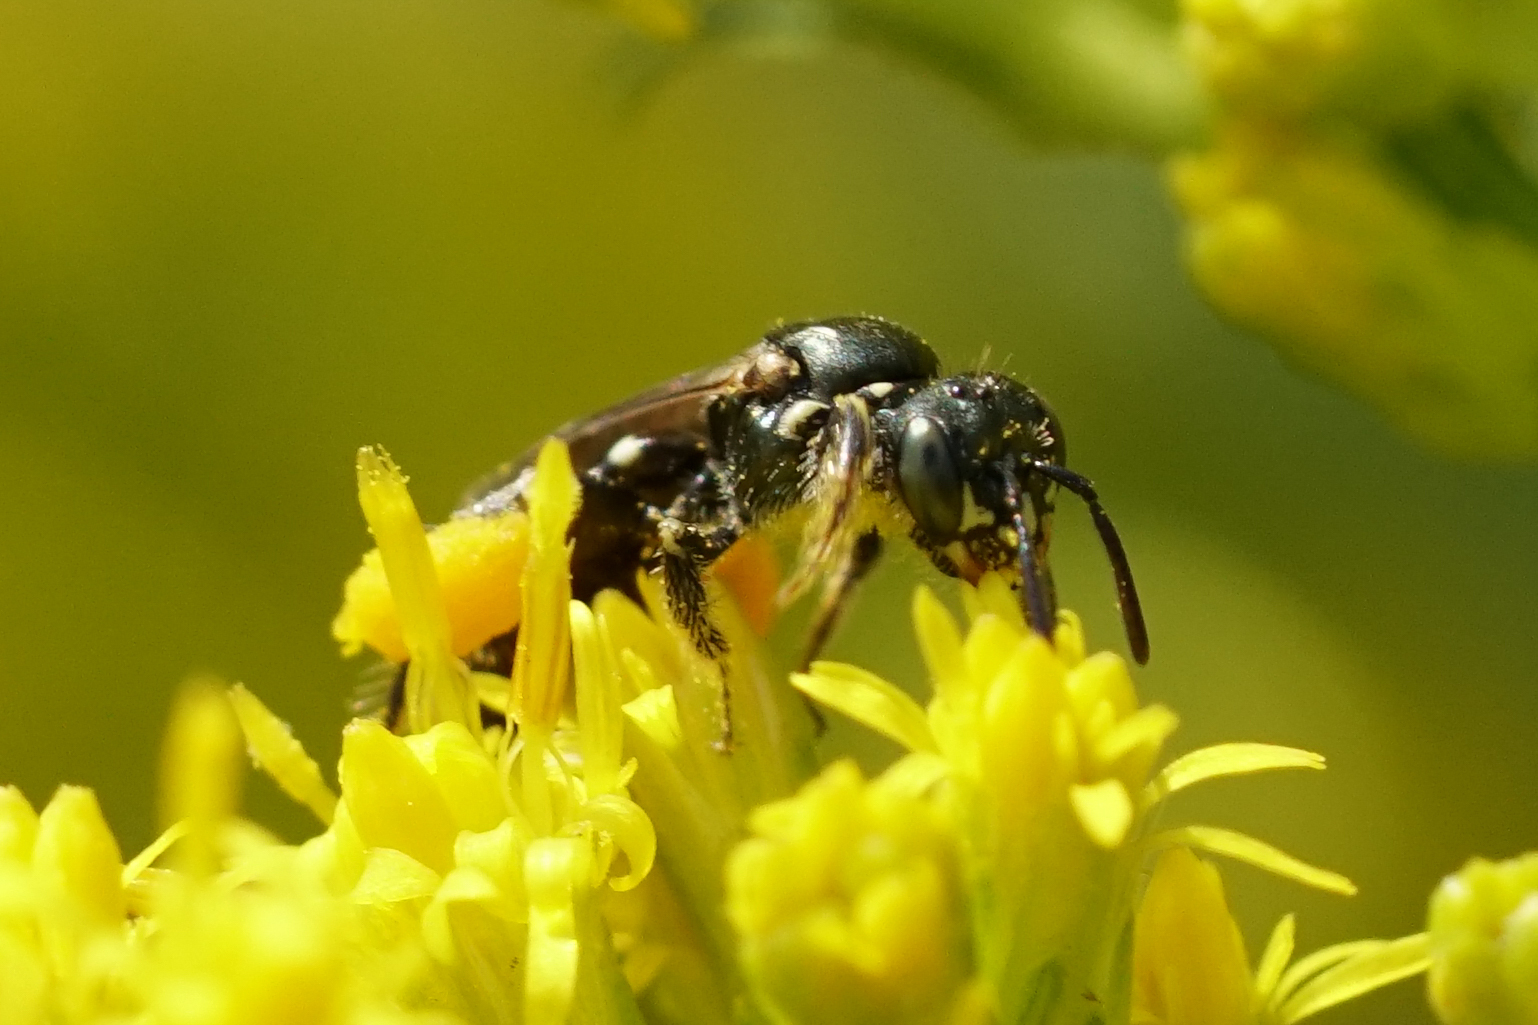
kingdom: Animalia
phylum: Arthropoda
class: Insecta
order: Hymenoptera
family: Andrenidae
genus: Perdita
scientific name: Perdita octomaculata
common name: Eight-spotted miner bee
